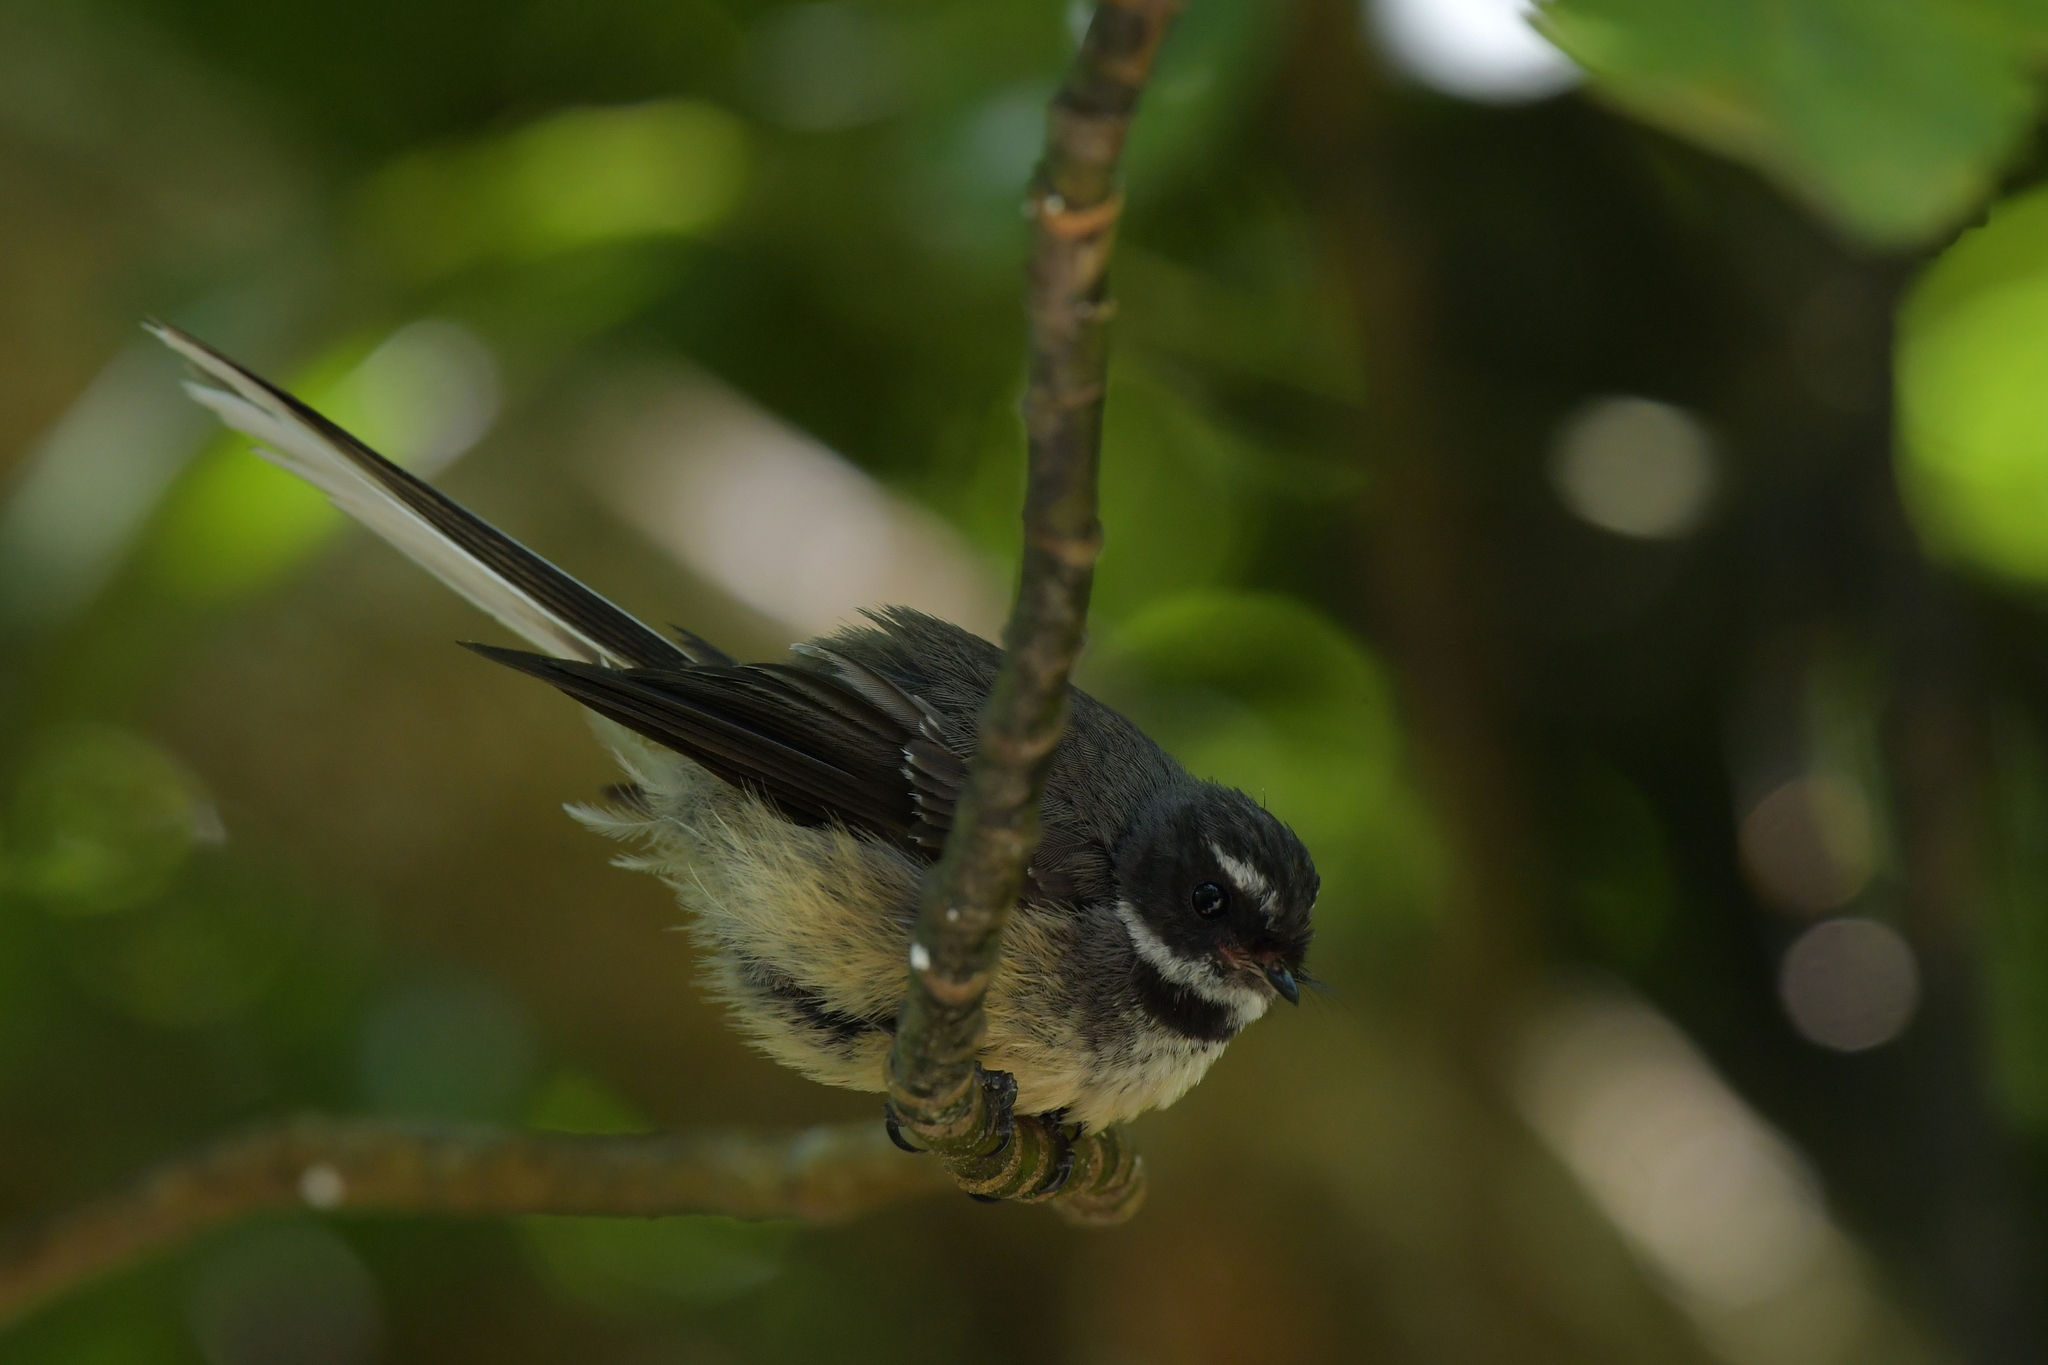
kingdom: Animalia
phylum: Chordata
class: Aves
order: Passeriformes
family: Rhipiduridae
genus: Rhipidura
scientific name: Rhipidura fuliginosa
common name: New zealand fantail
